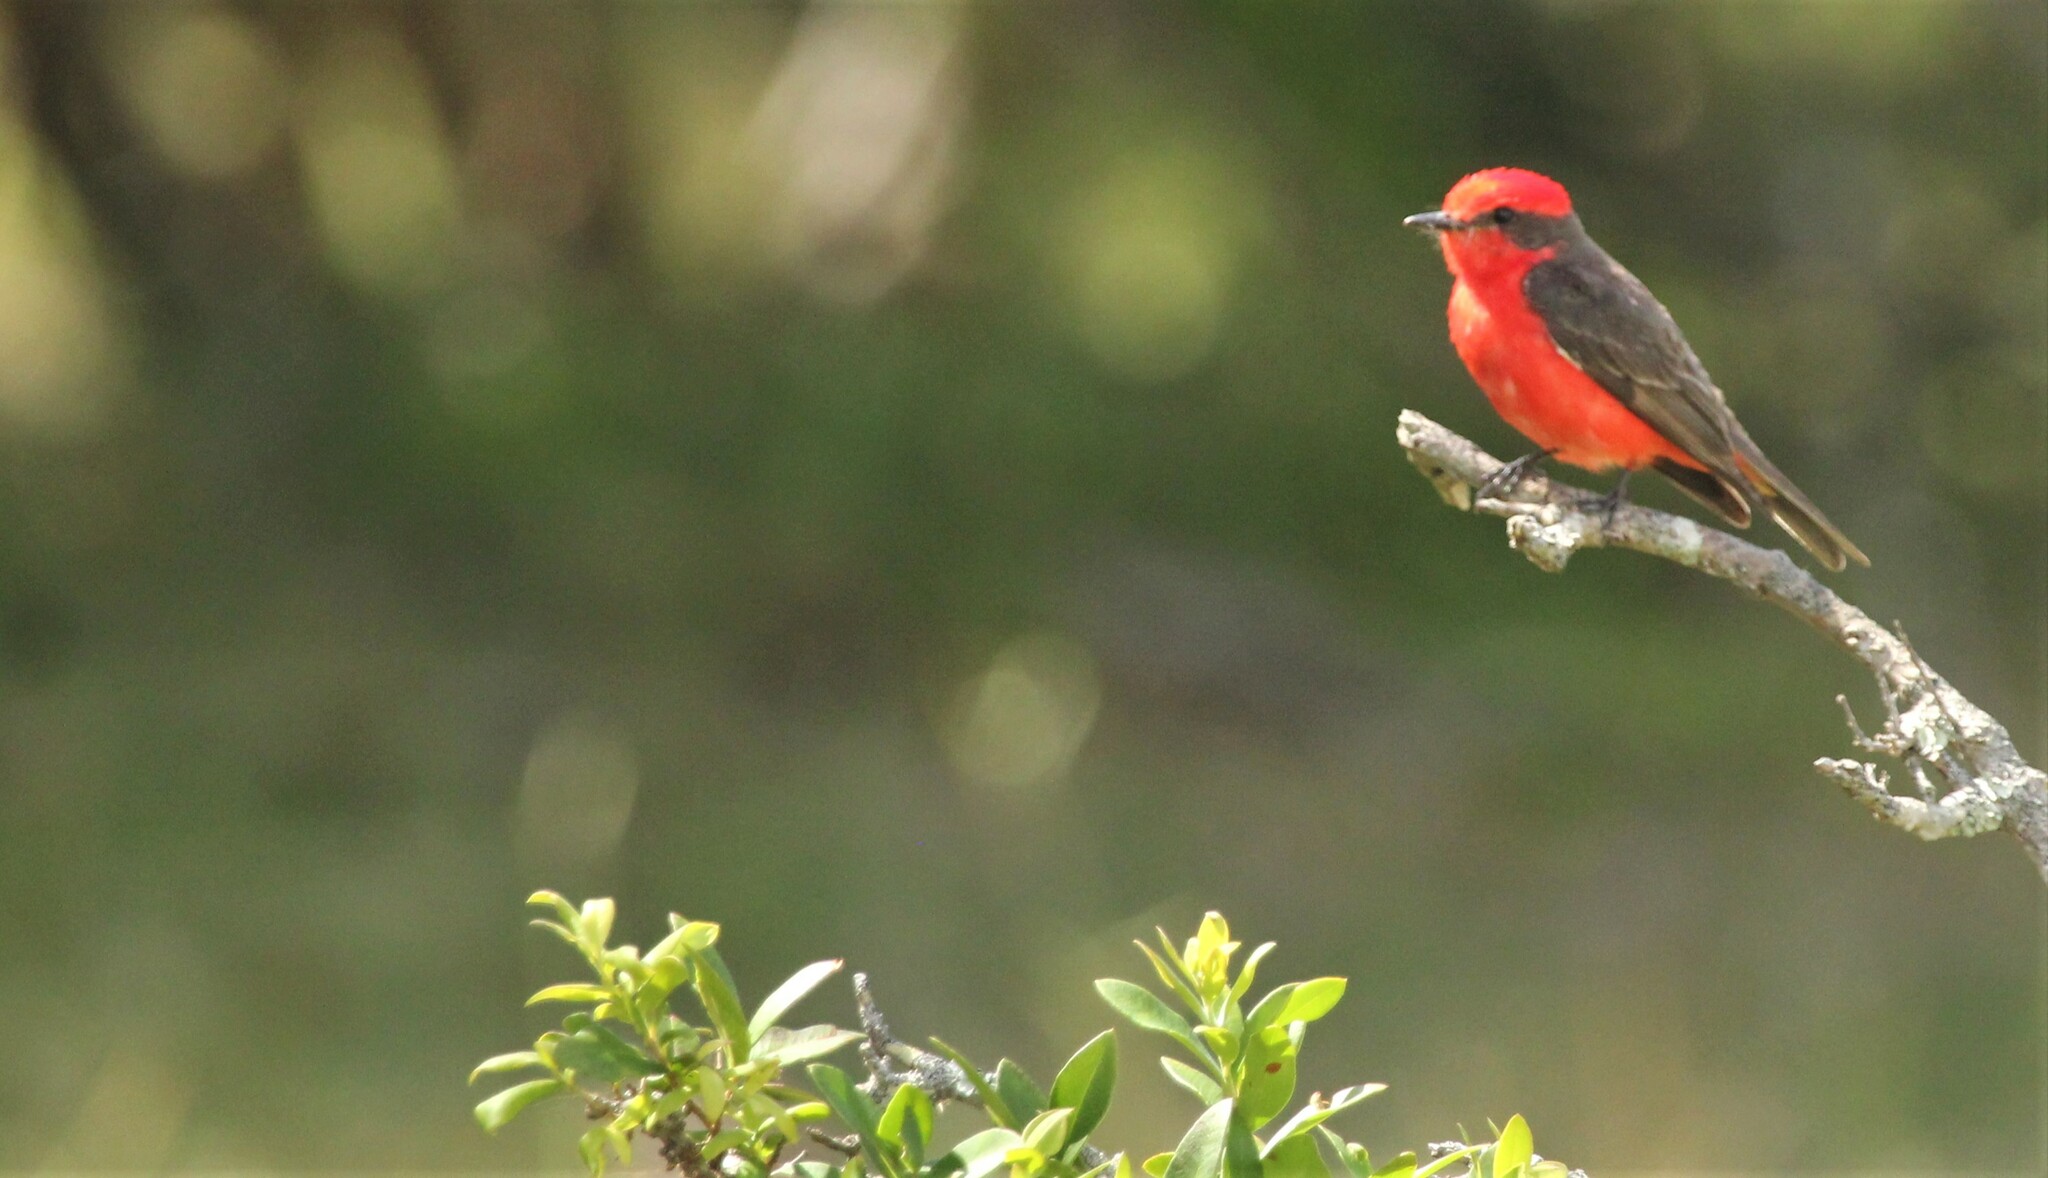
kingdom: Animalia
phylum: Chordata
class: Aves
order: Passeriformes
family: Tyrannidae
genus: Pyrocephalus
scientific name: Pyrocephalus rubinus
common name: Vermilion flycatcher
